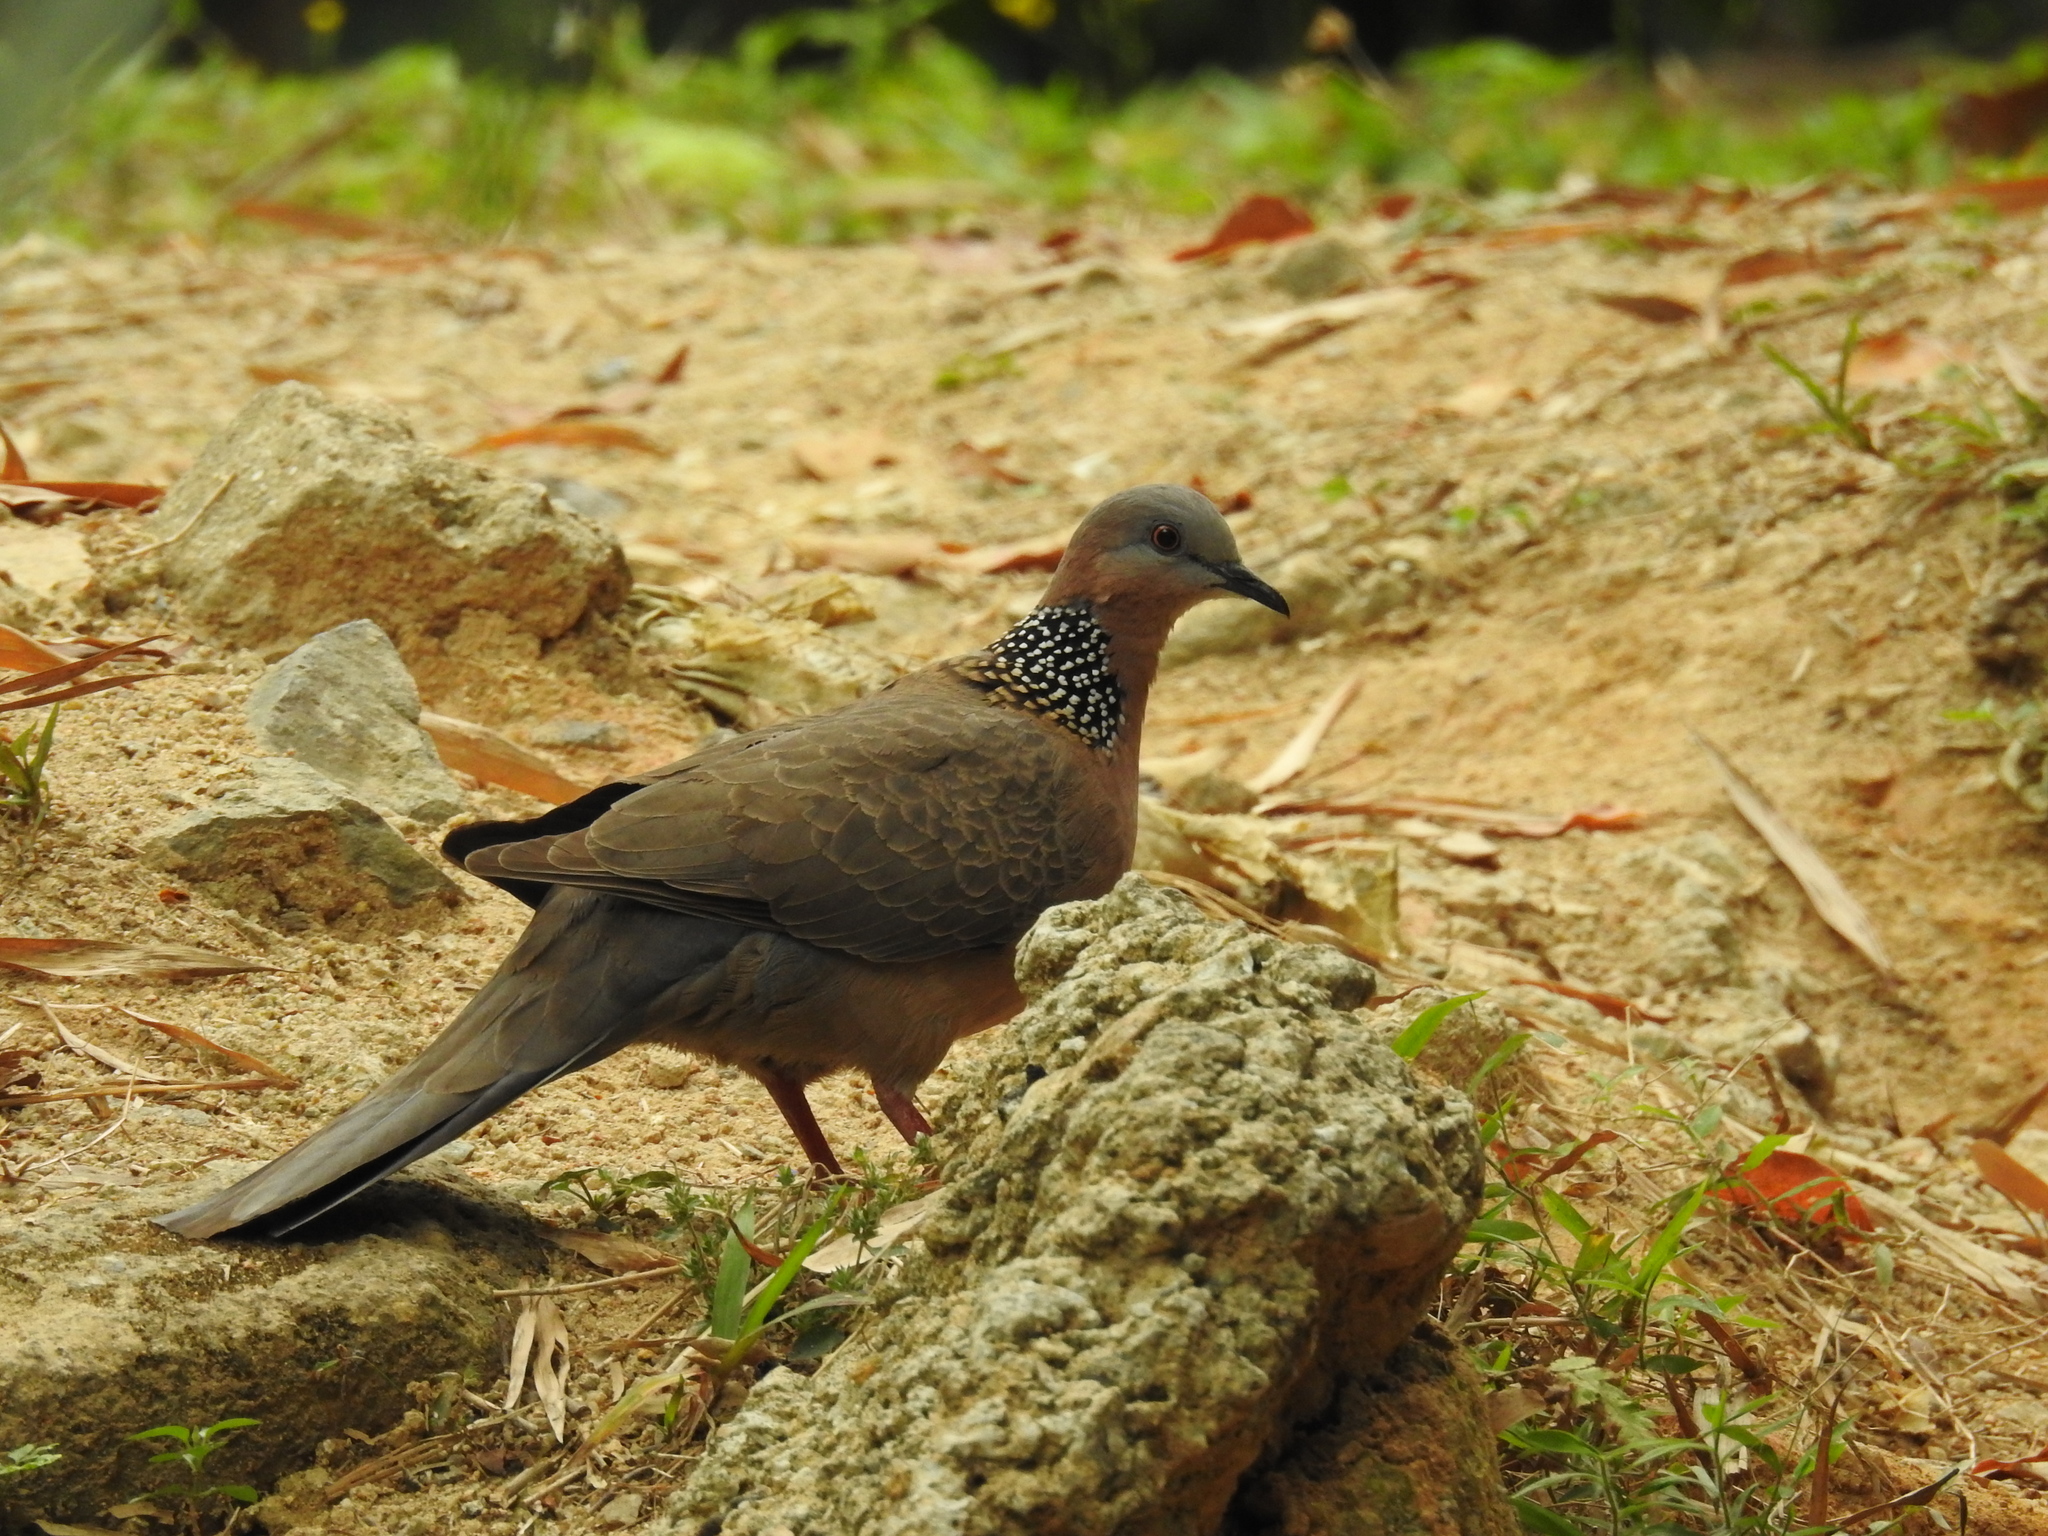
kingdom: Animalia
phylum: Chordata
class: Aves
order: Columbiformes
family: Columbidae
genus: Spilopelia
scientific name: Spilopelia chinensis
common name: Spotted dove
